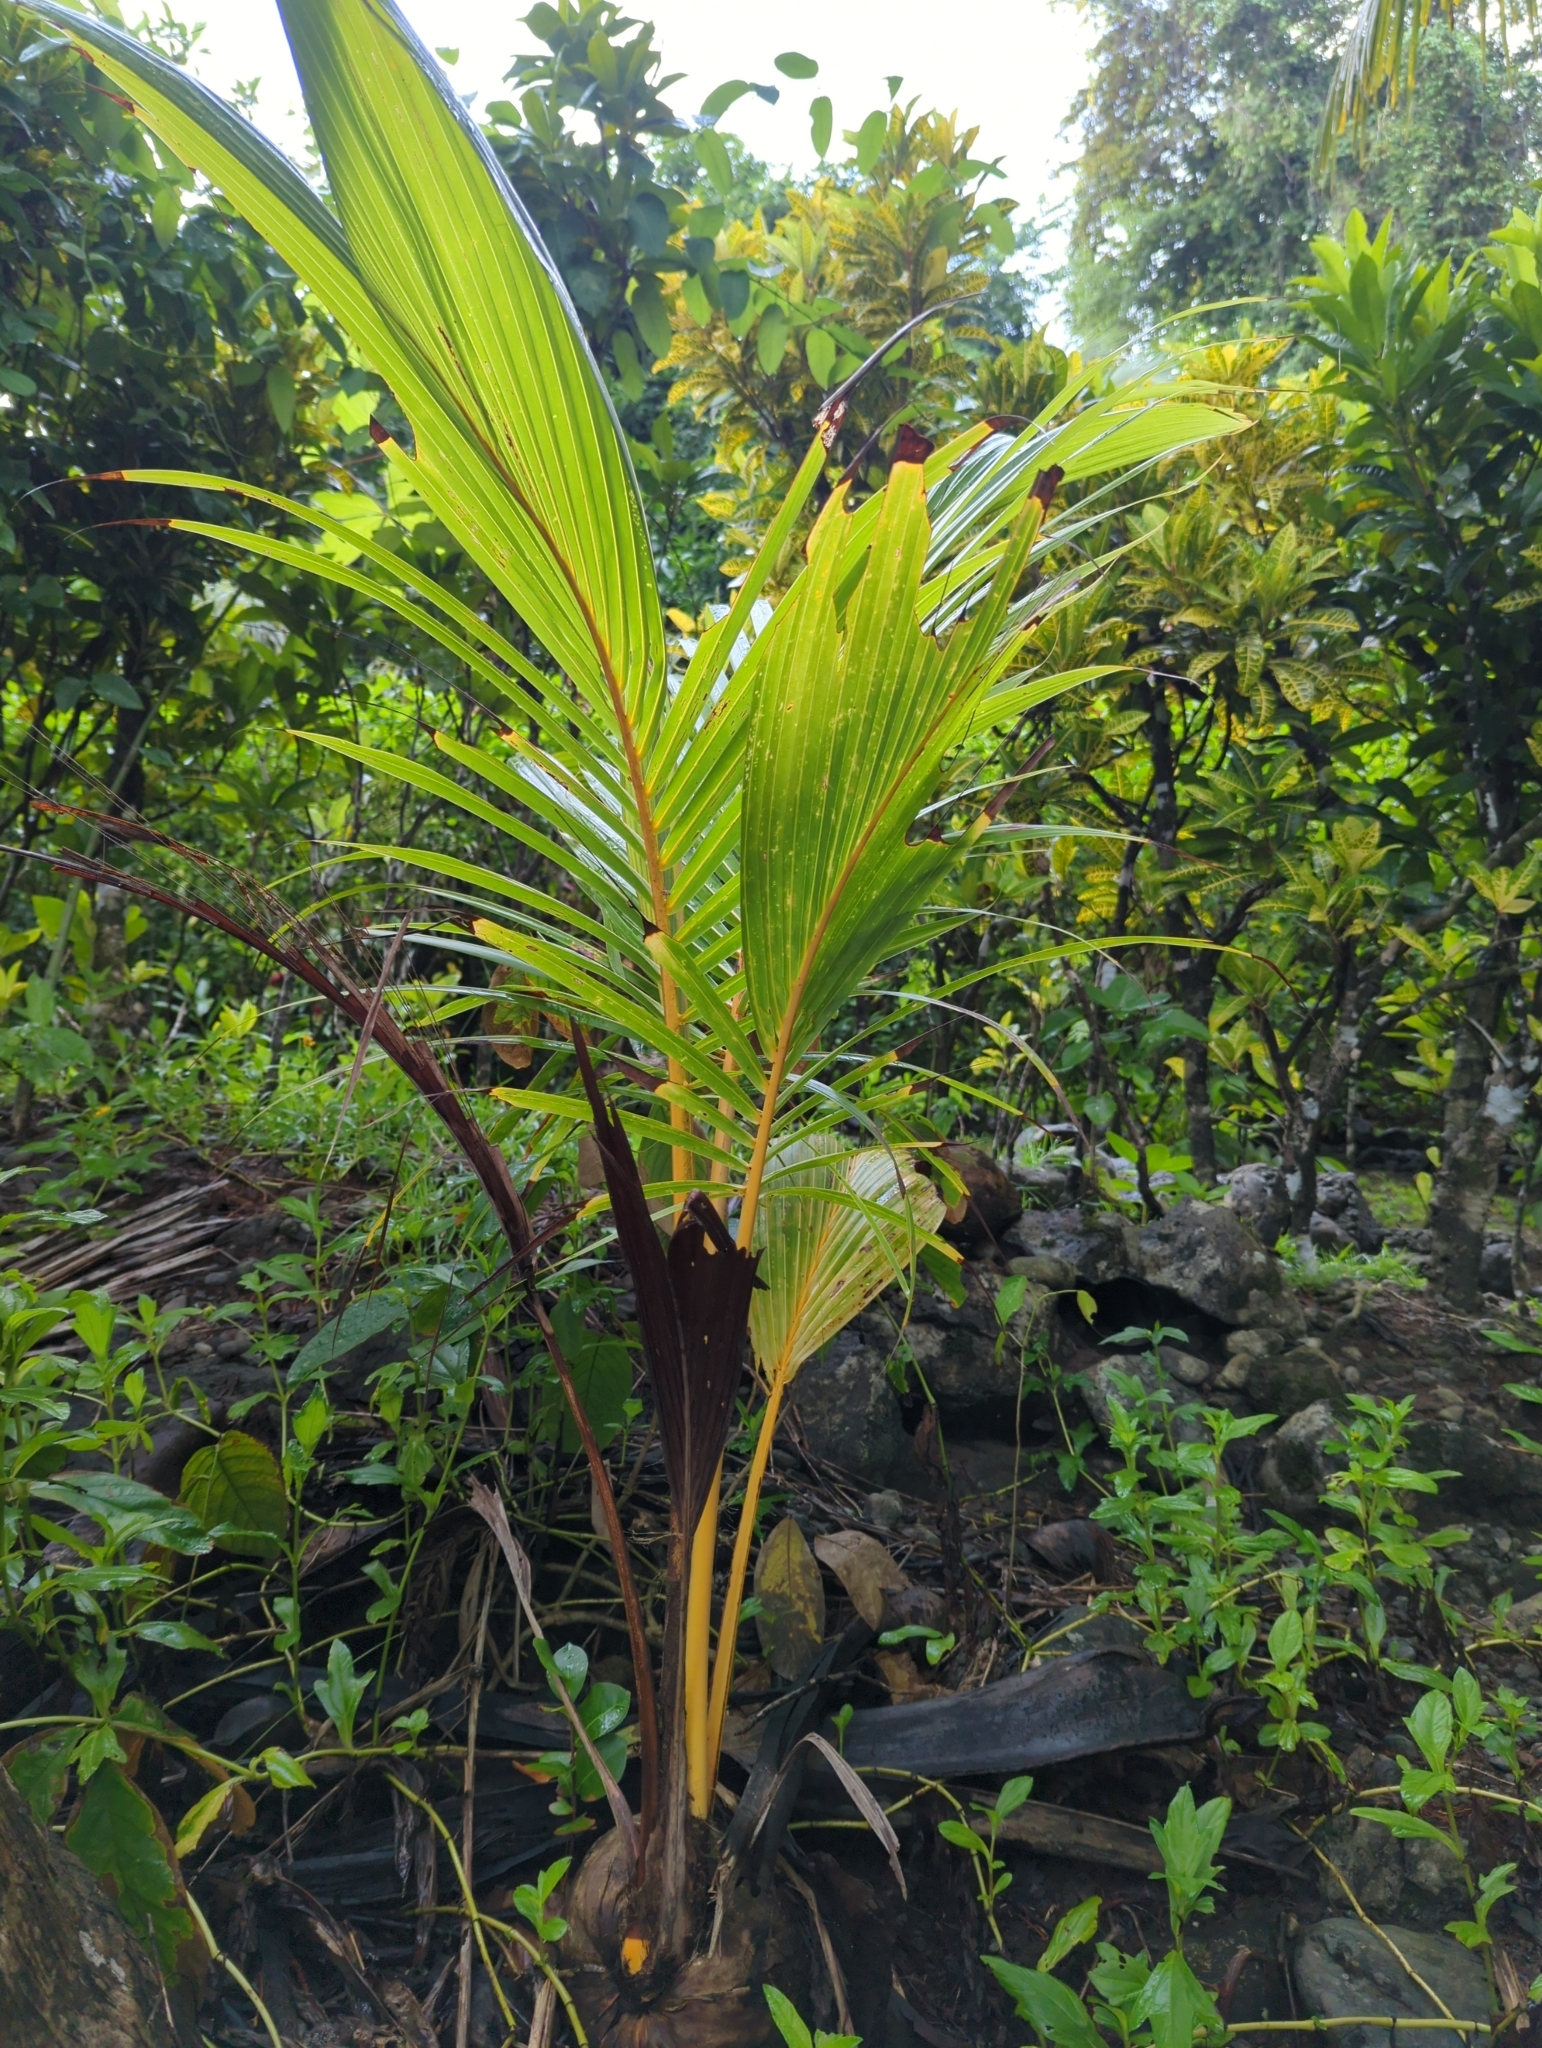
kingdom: Plantae
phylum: Tracheophyta
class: Liliopsida
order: Arecales
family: Arecaceae
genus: Cocos
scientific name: Cocos nucifera
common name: Coconut palm
